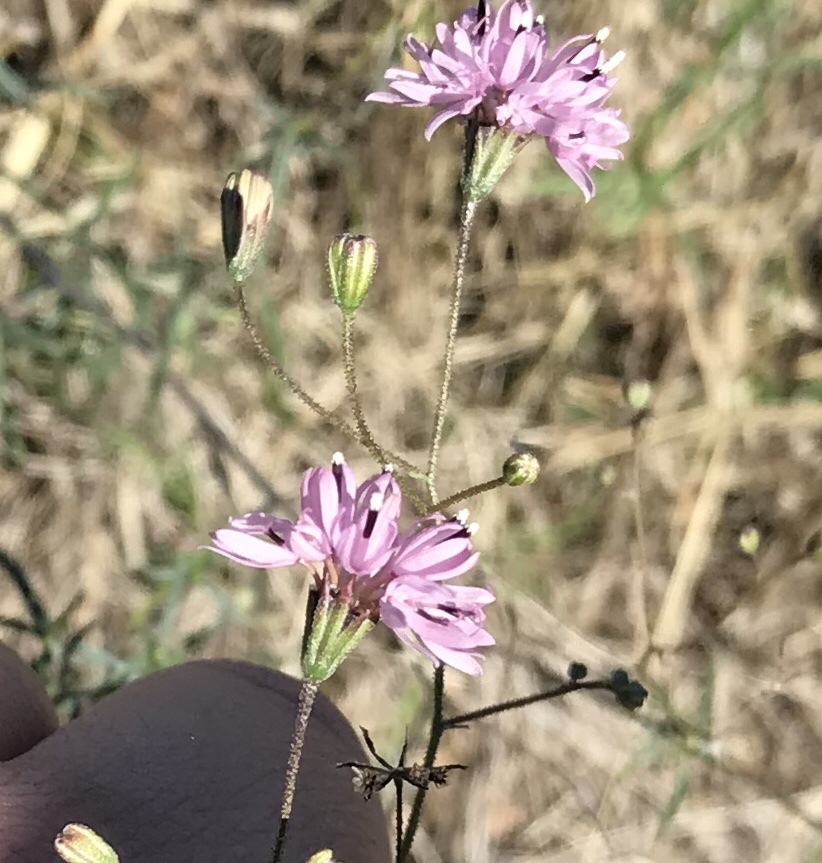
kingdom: Plantae
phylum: Tracheophyta
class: Magnoliopsida
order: Asterales
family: Asteraceae
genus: Palafoxia
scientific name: Palafoxia callosa
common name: Small palafox
